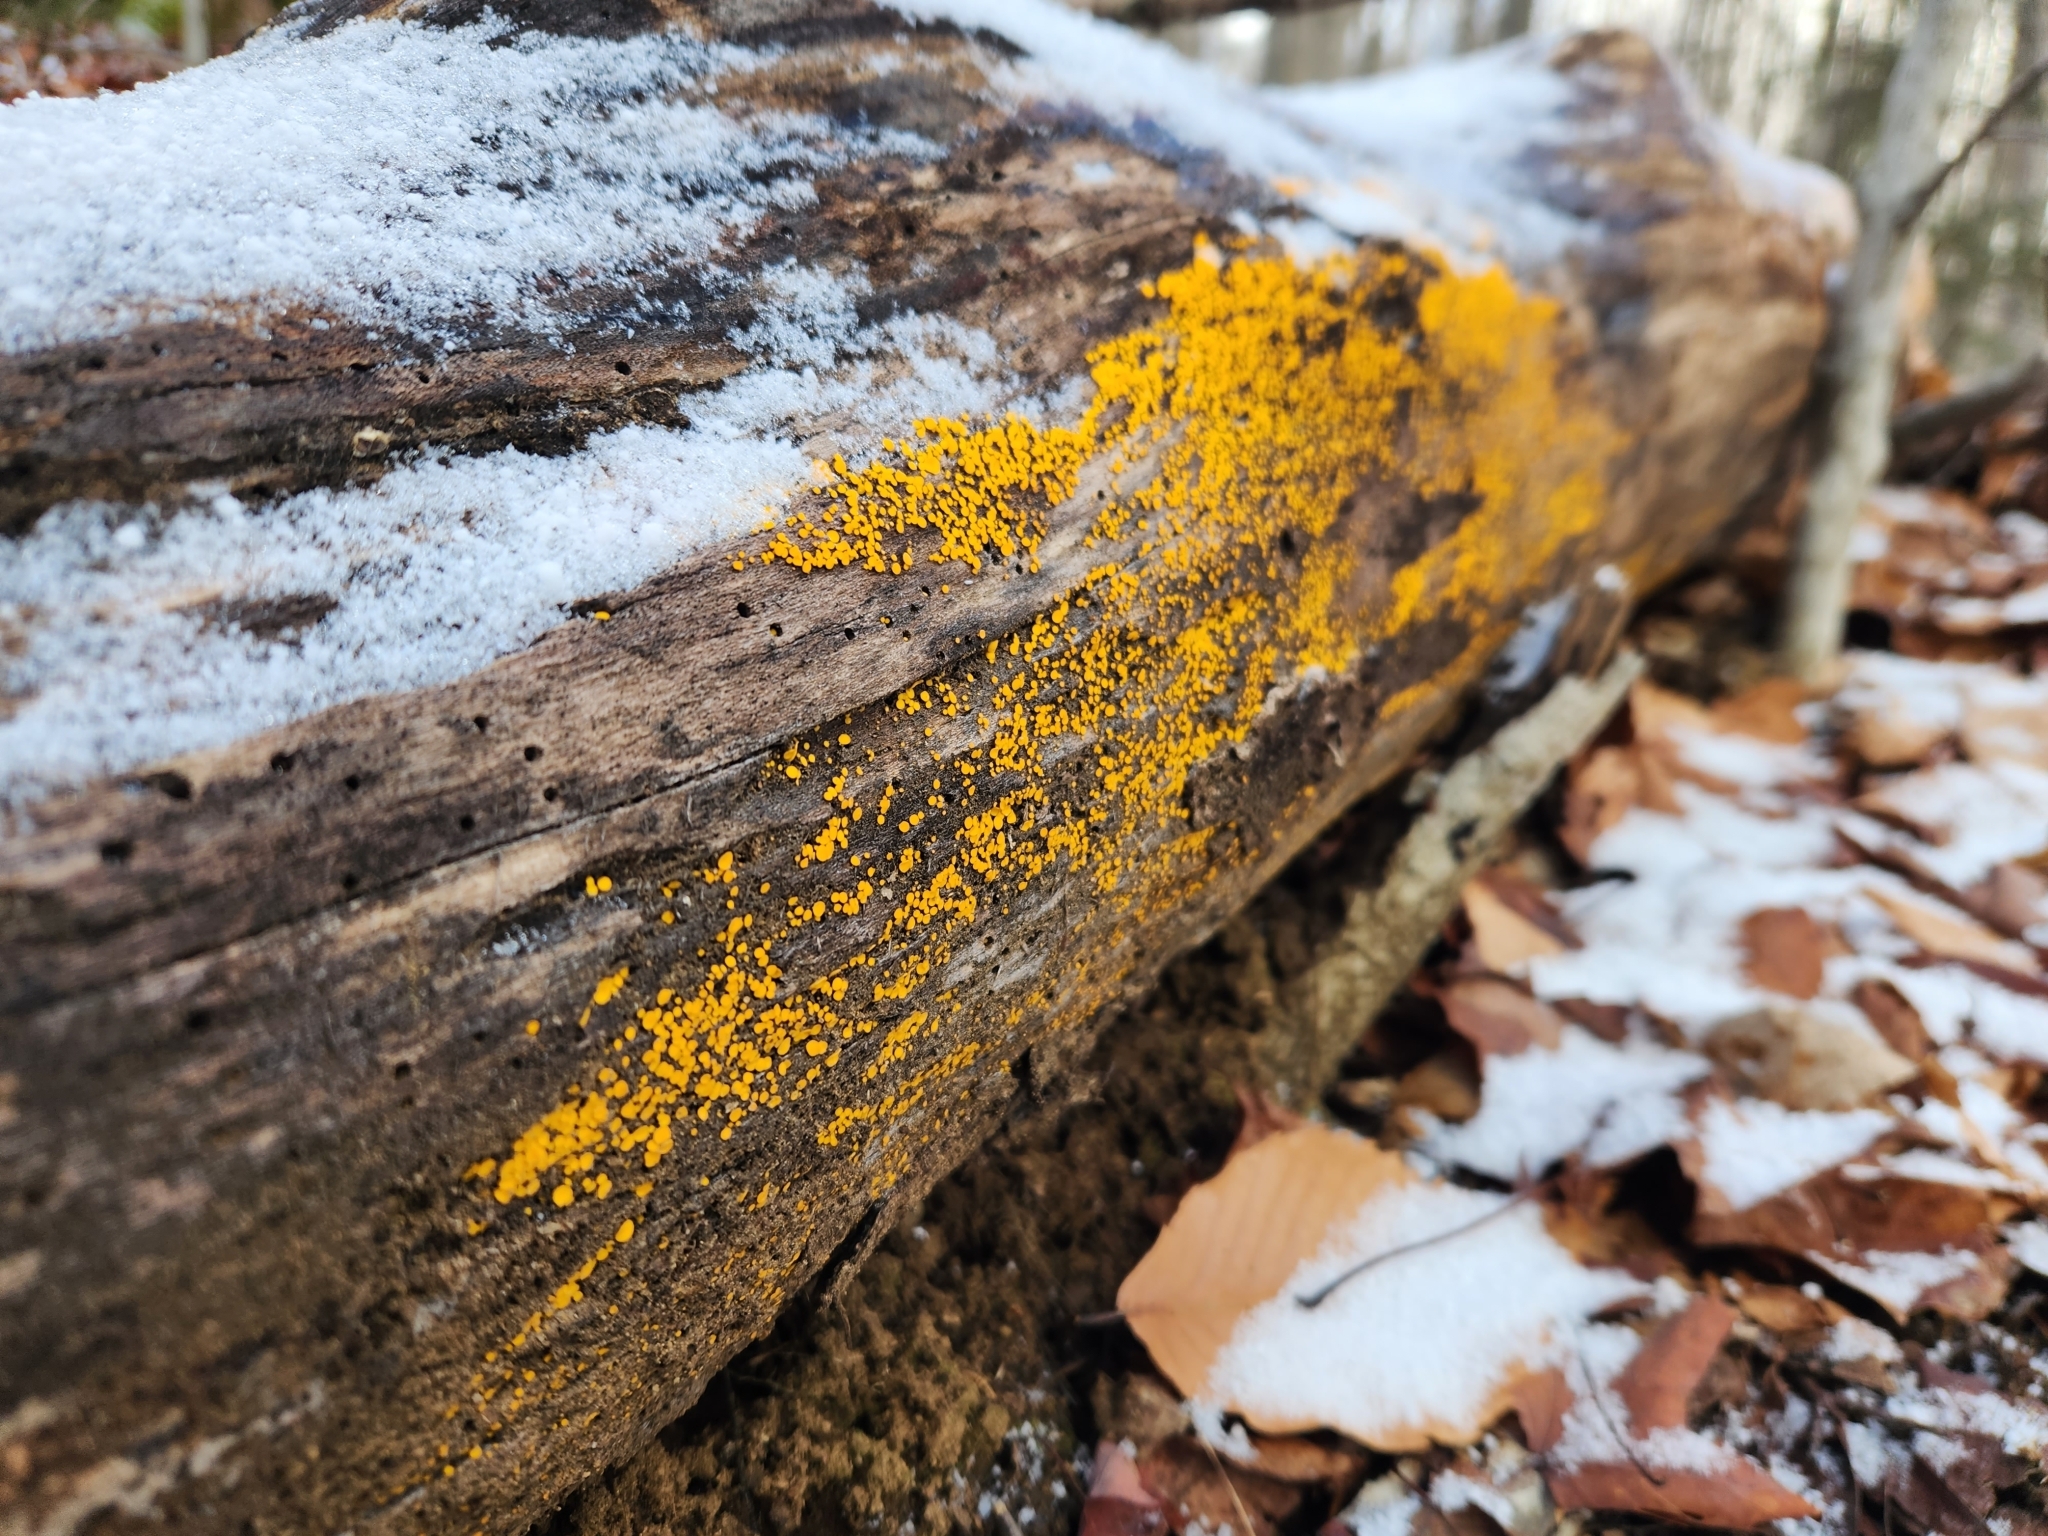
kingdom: Fungi
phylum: Ascomycota
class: Leotiomycetes
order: Helotiales
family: Pezizellaceae
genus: Calycina
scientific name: Calycina citrina
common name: Yellow fairy cups
